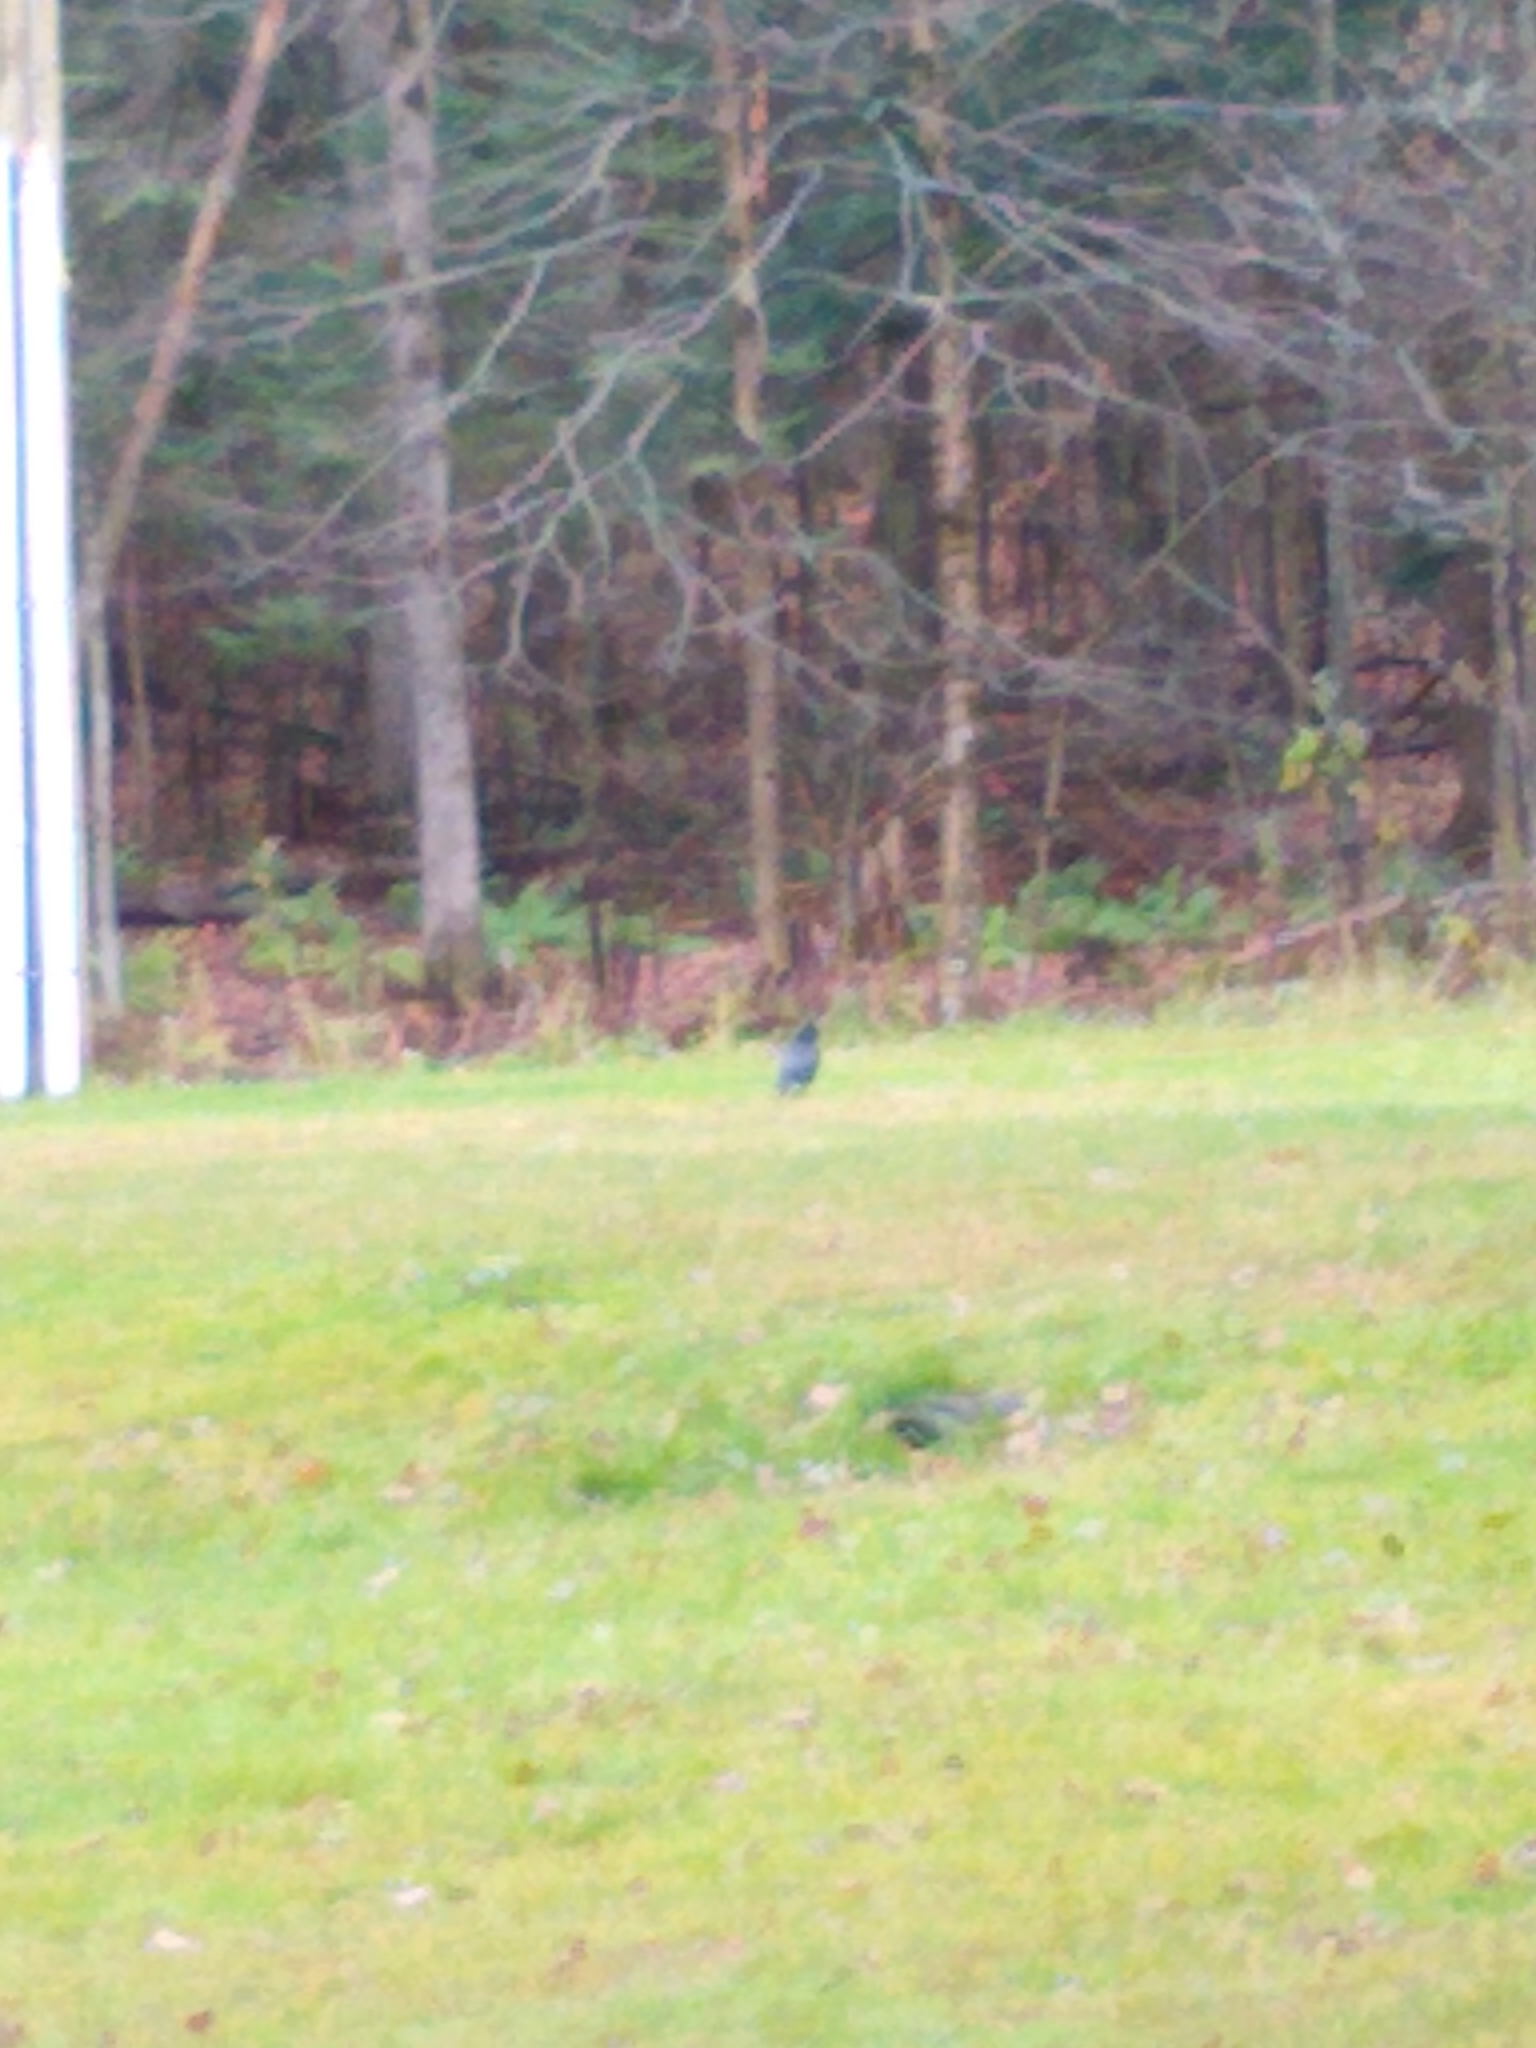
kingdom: Animalia
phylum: Chordata
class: Aves
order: Passeriformes
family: Corvidae
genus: Corvus
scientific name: Corvus brachyrhynchos
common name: American crow
